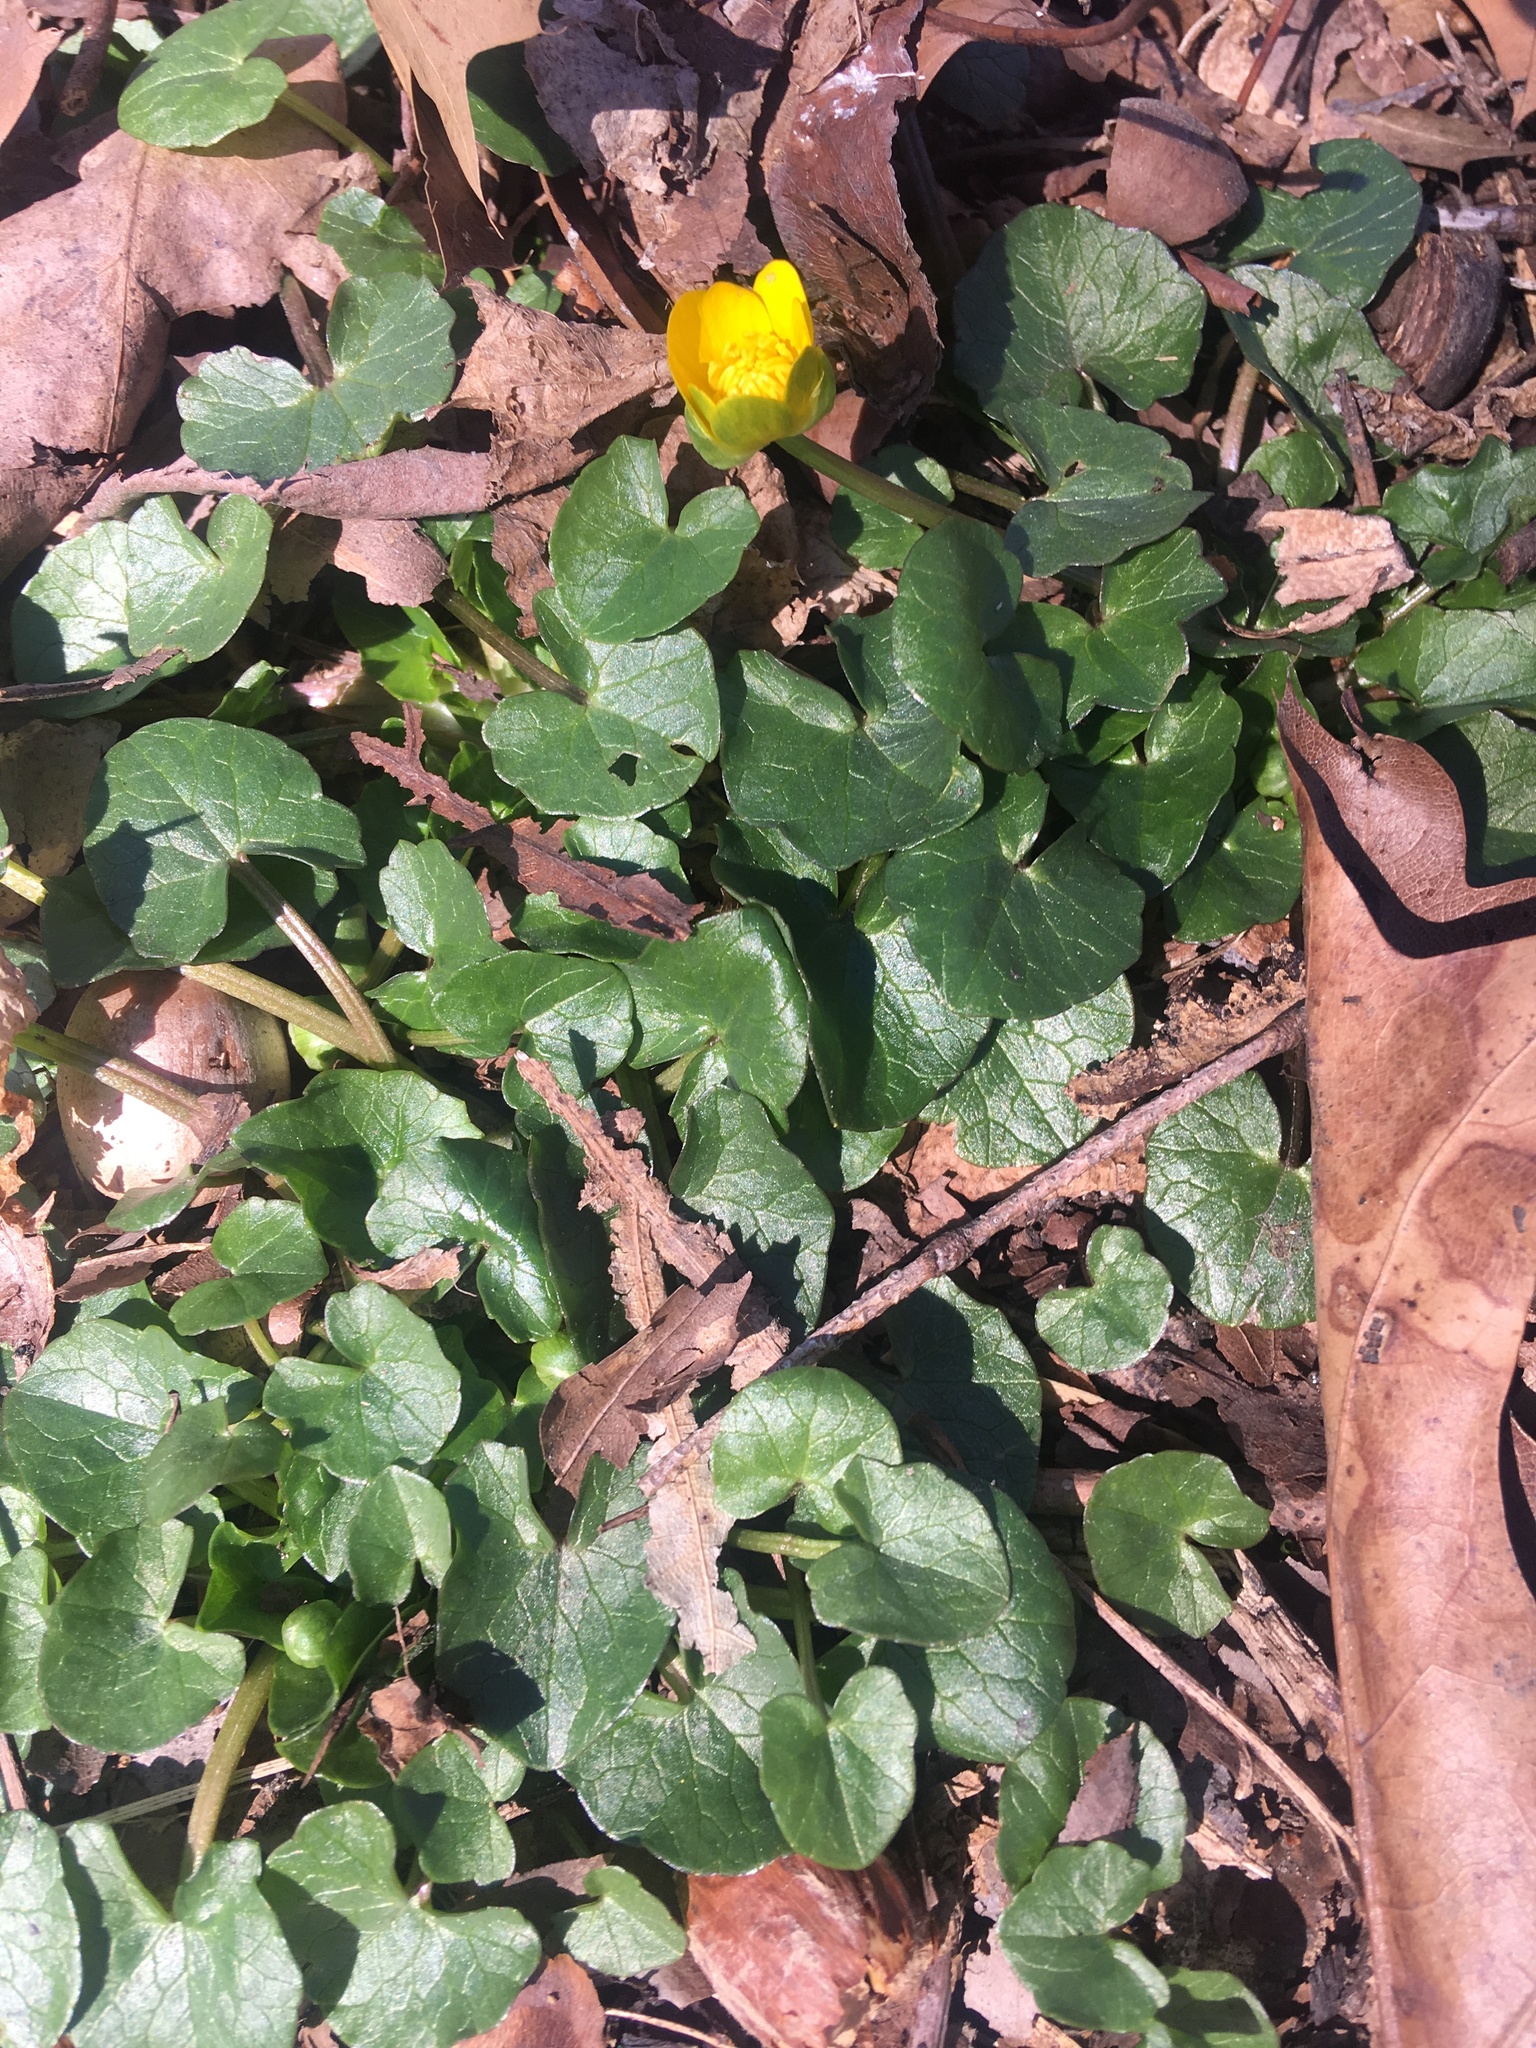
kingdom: Plantae
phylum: Tracheophyta
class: Magnoliopsida
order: Ranunculales
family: Ranunculaceae
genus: Ficaria
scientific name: Ficaria verna
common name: Lesser celandine
